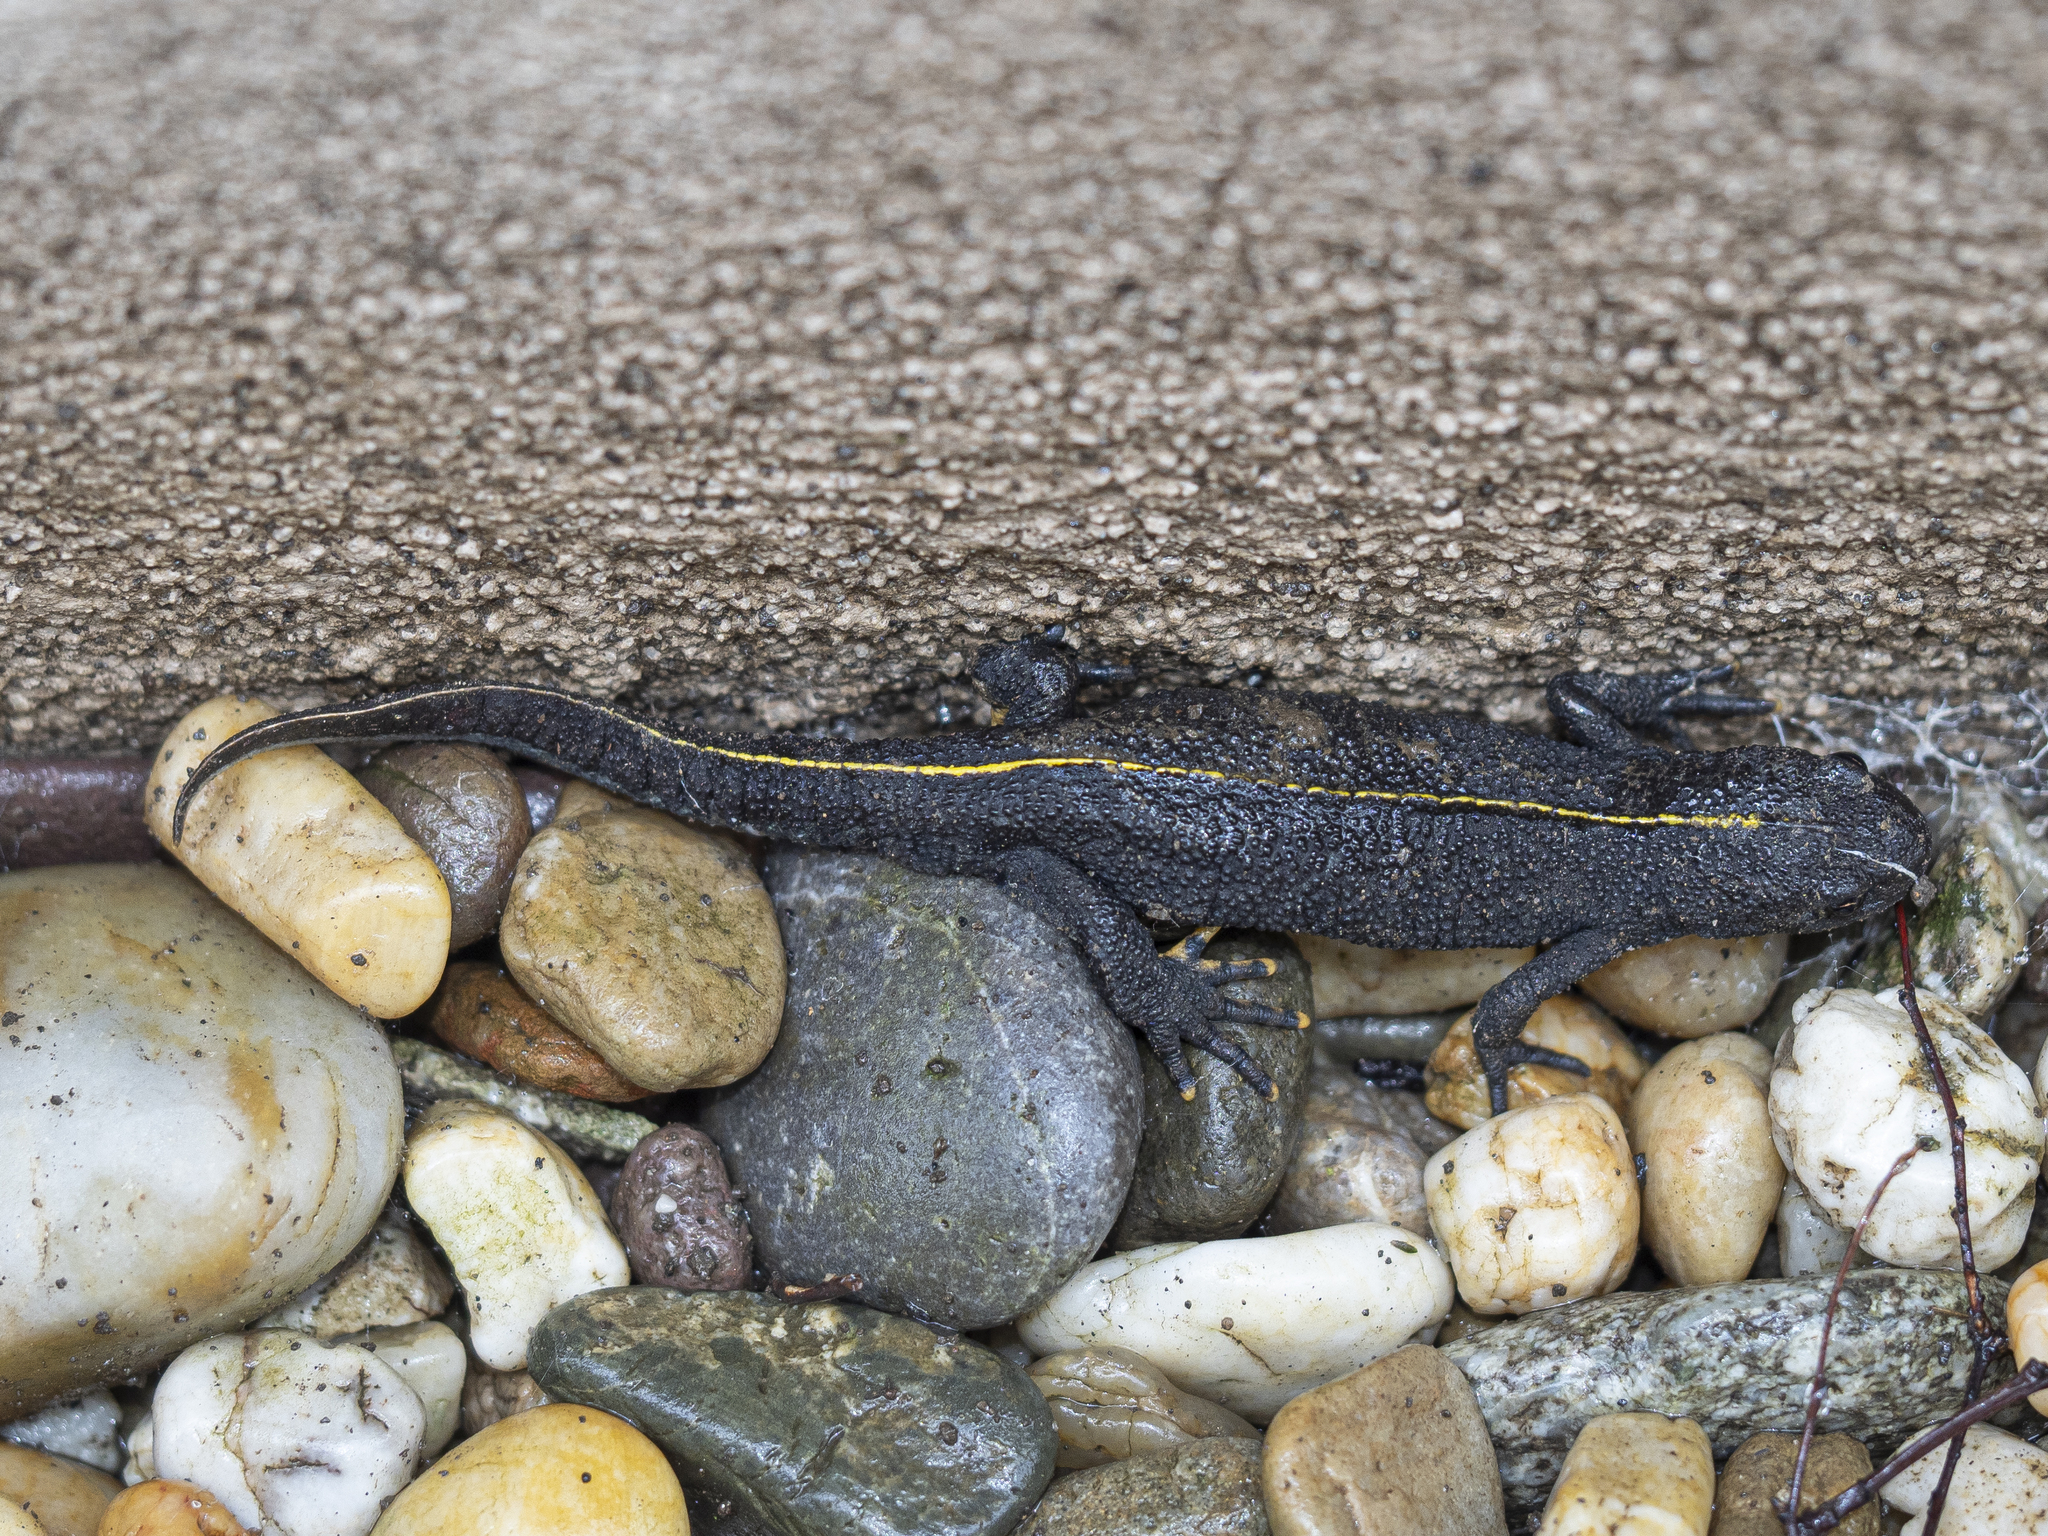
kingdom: Animalia
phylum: Chordata
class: Amphibia
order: Caudata
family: Salamandridae
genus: Triturus
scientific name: Triturus carnifex
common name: Italian crested newt
